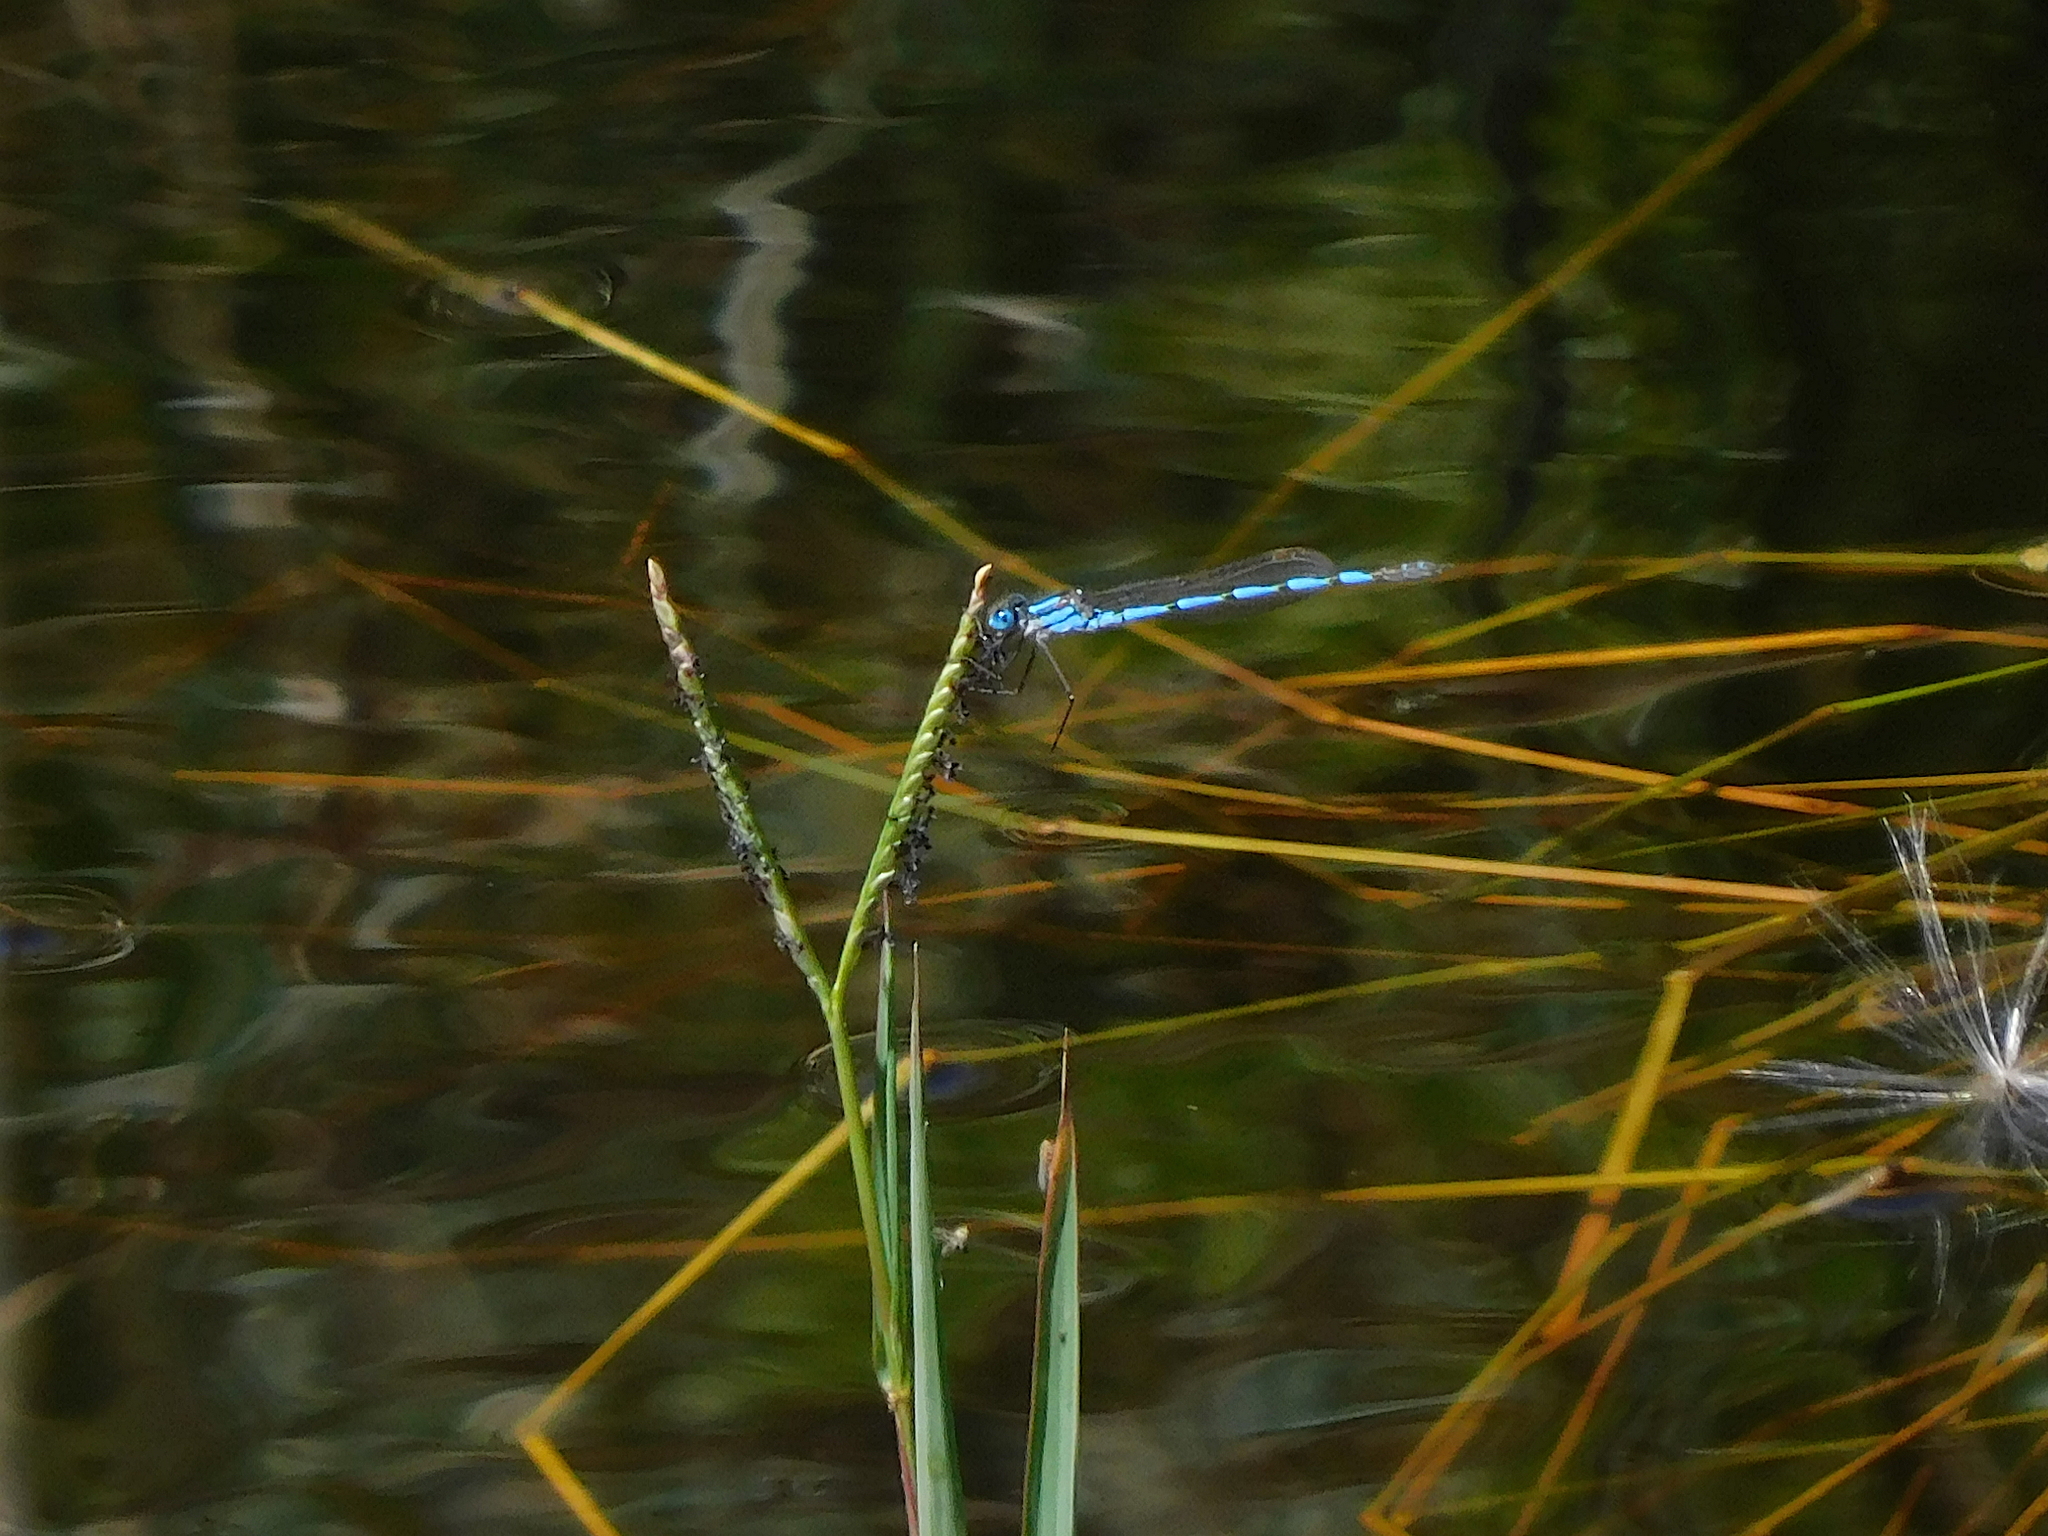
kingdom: Animalia
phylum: Arthropoda
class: Insecta
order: Odonata
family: Lestidae
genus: Austrolestes
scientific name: Austrolestes annulosus
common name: Blue ringtail
